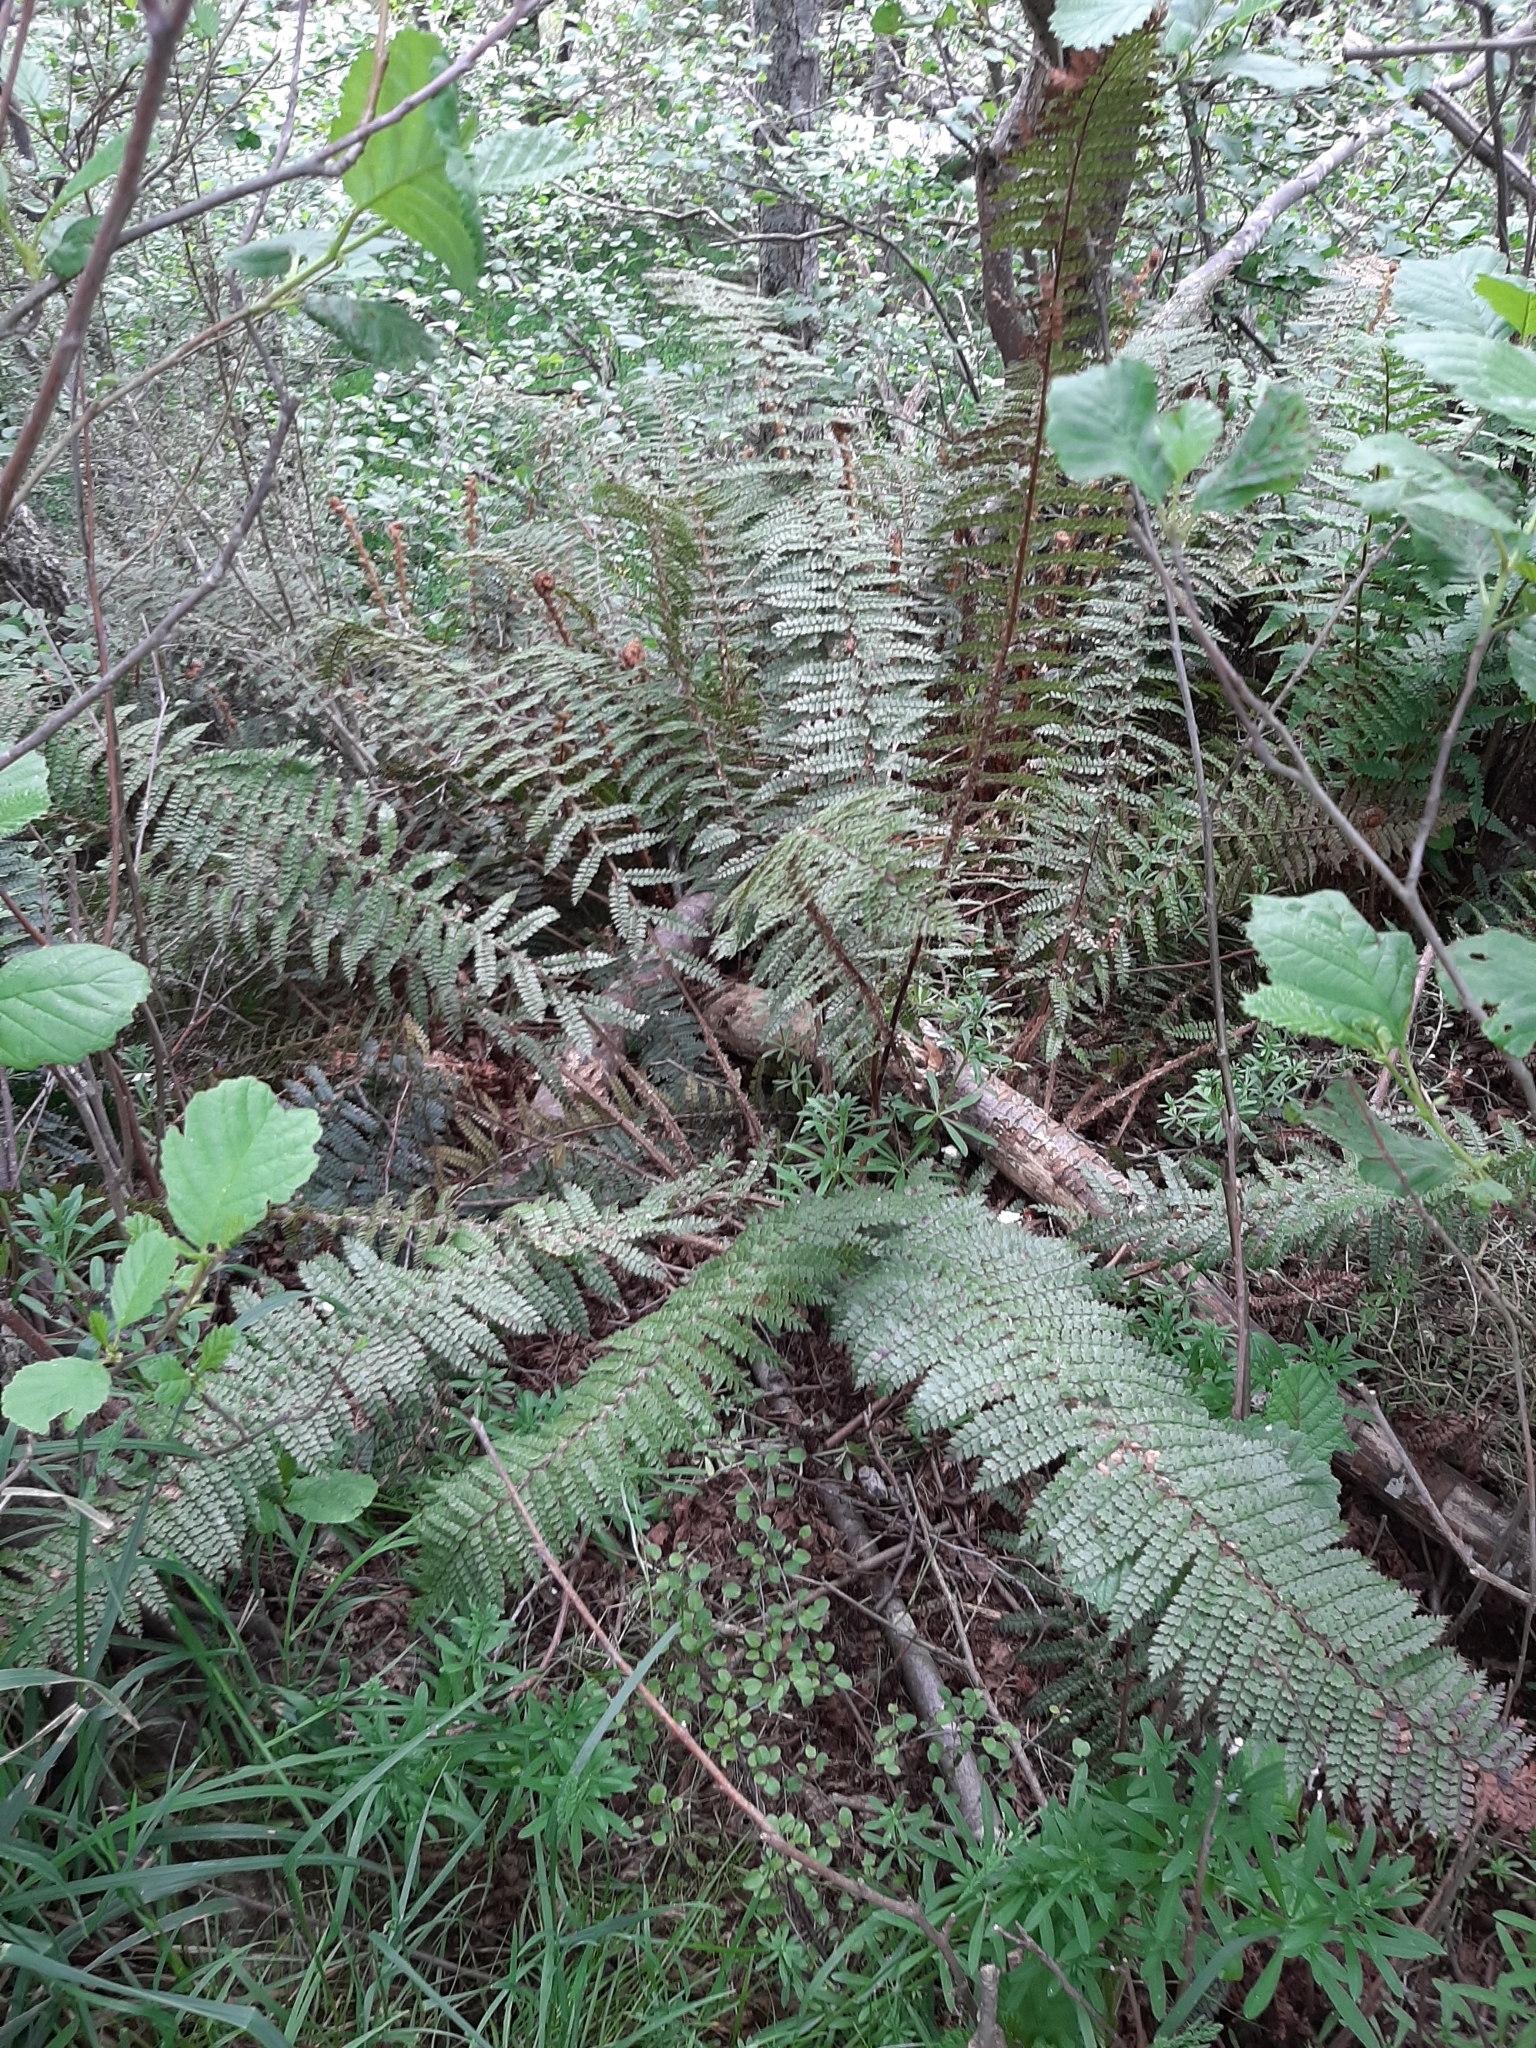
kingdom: Plantae
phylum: Tracheophyta
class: Polypodiopsida
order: Polypodiales
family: Dryopteridaceae
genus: Polystichum
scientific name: Polystichum vestitum
